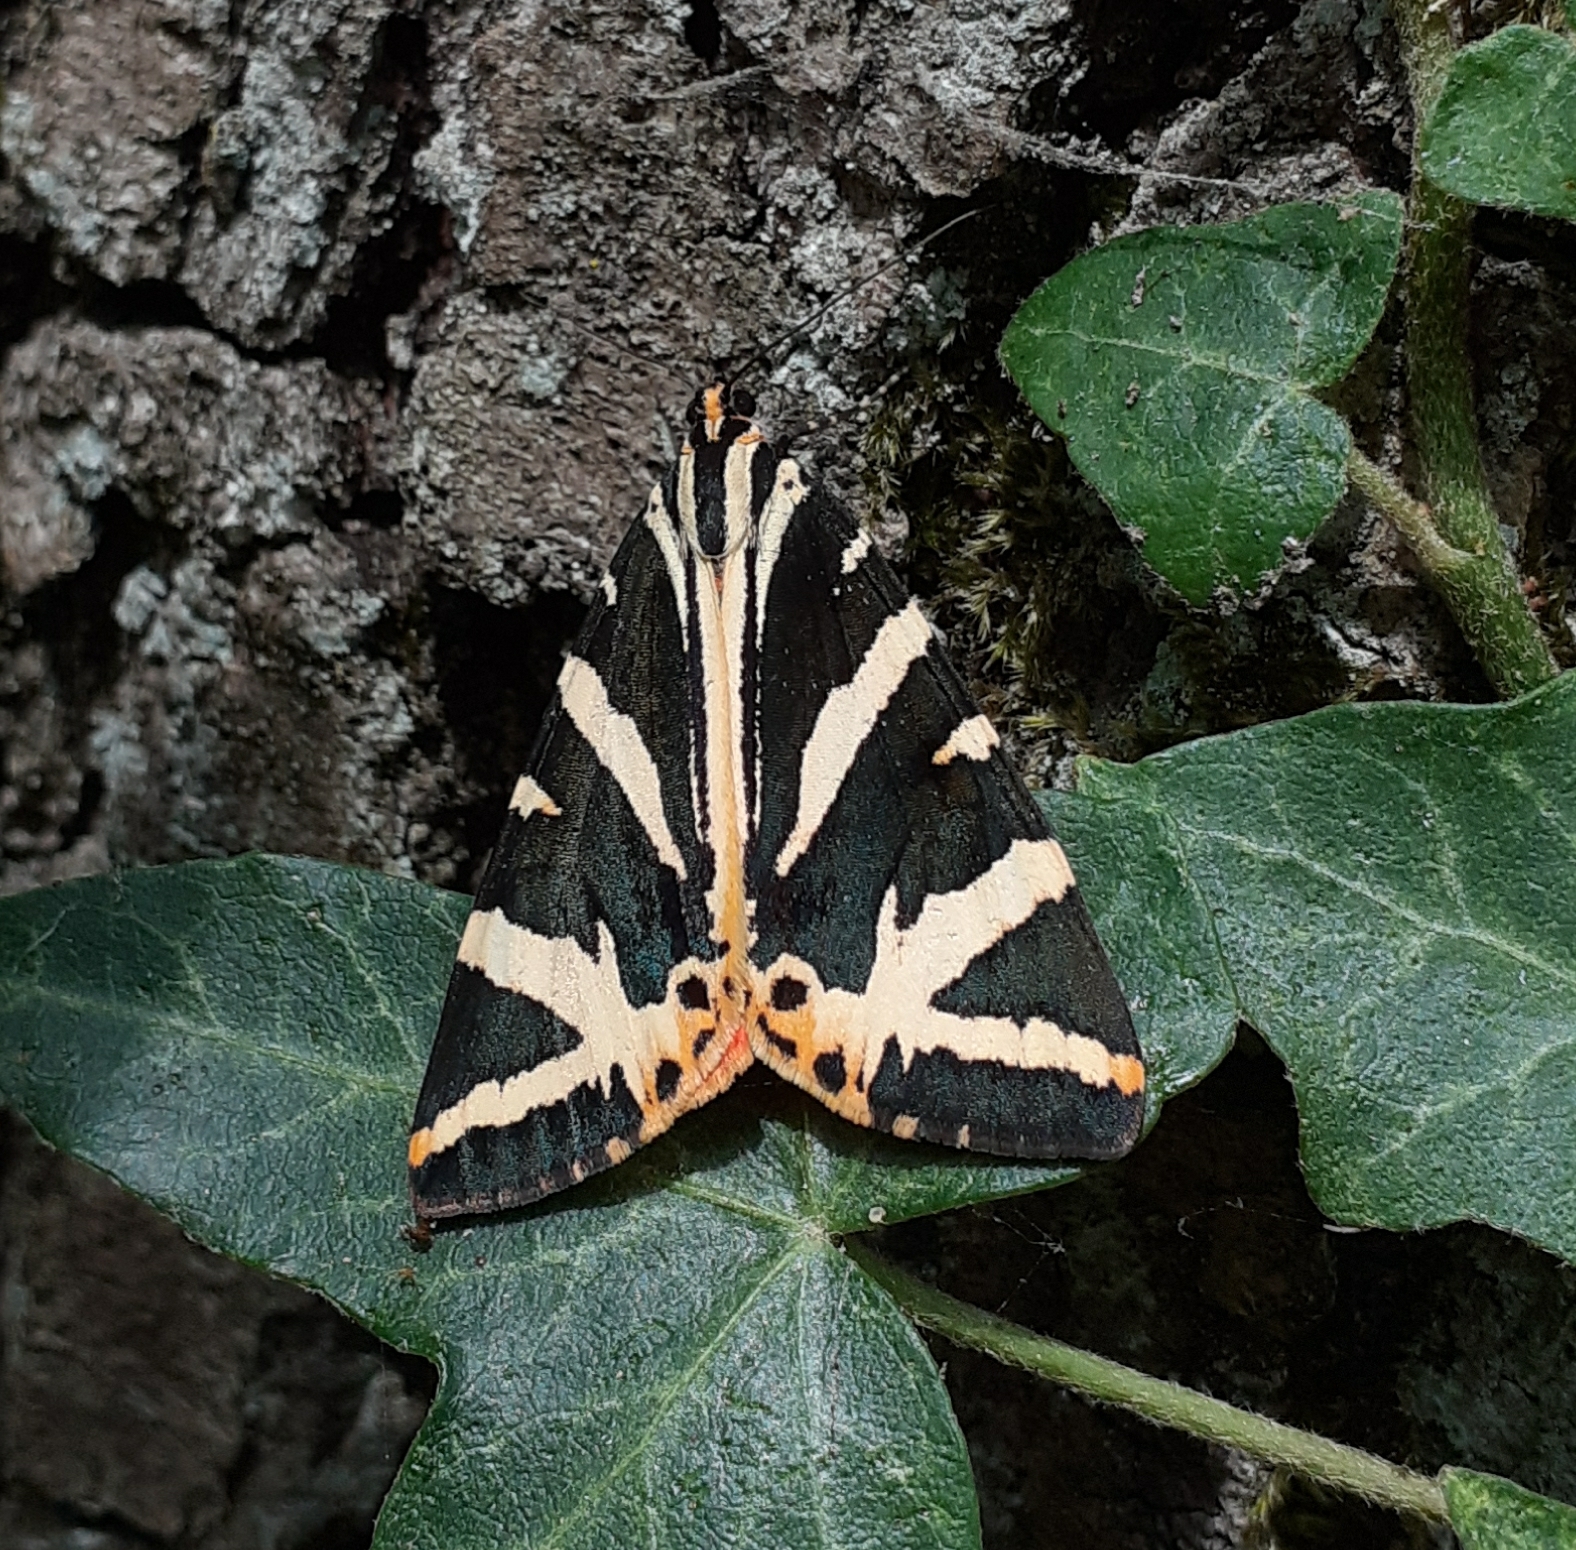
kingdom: Animalia
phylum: Arthropoda
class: Insecta
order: Lepidoptera
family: Erebidae
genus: Euplagia
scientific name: Euplagia quadripunctaria
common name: Jersey tiger
